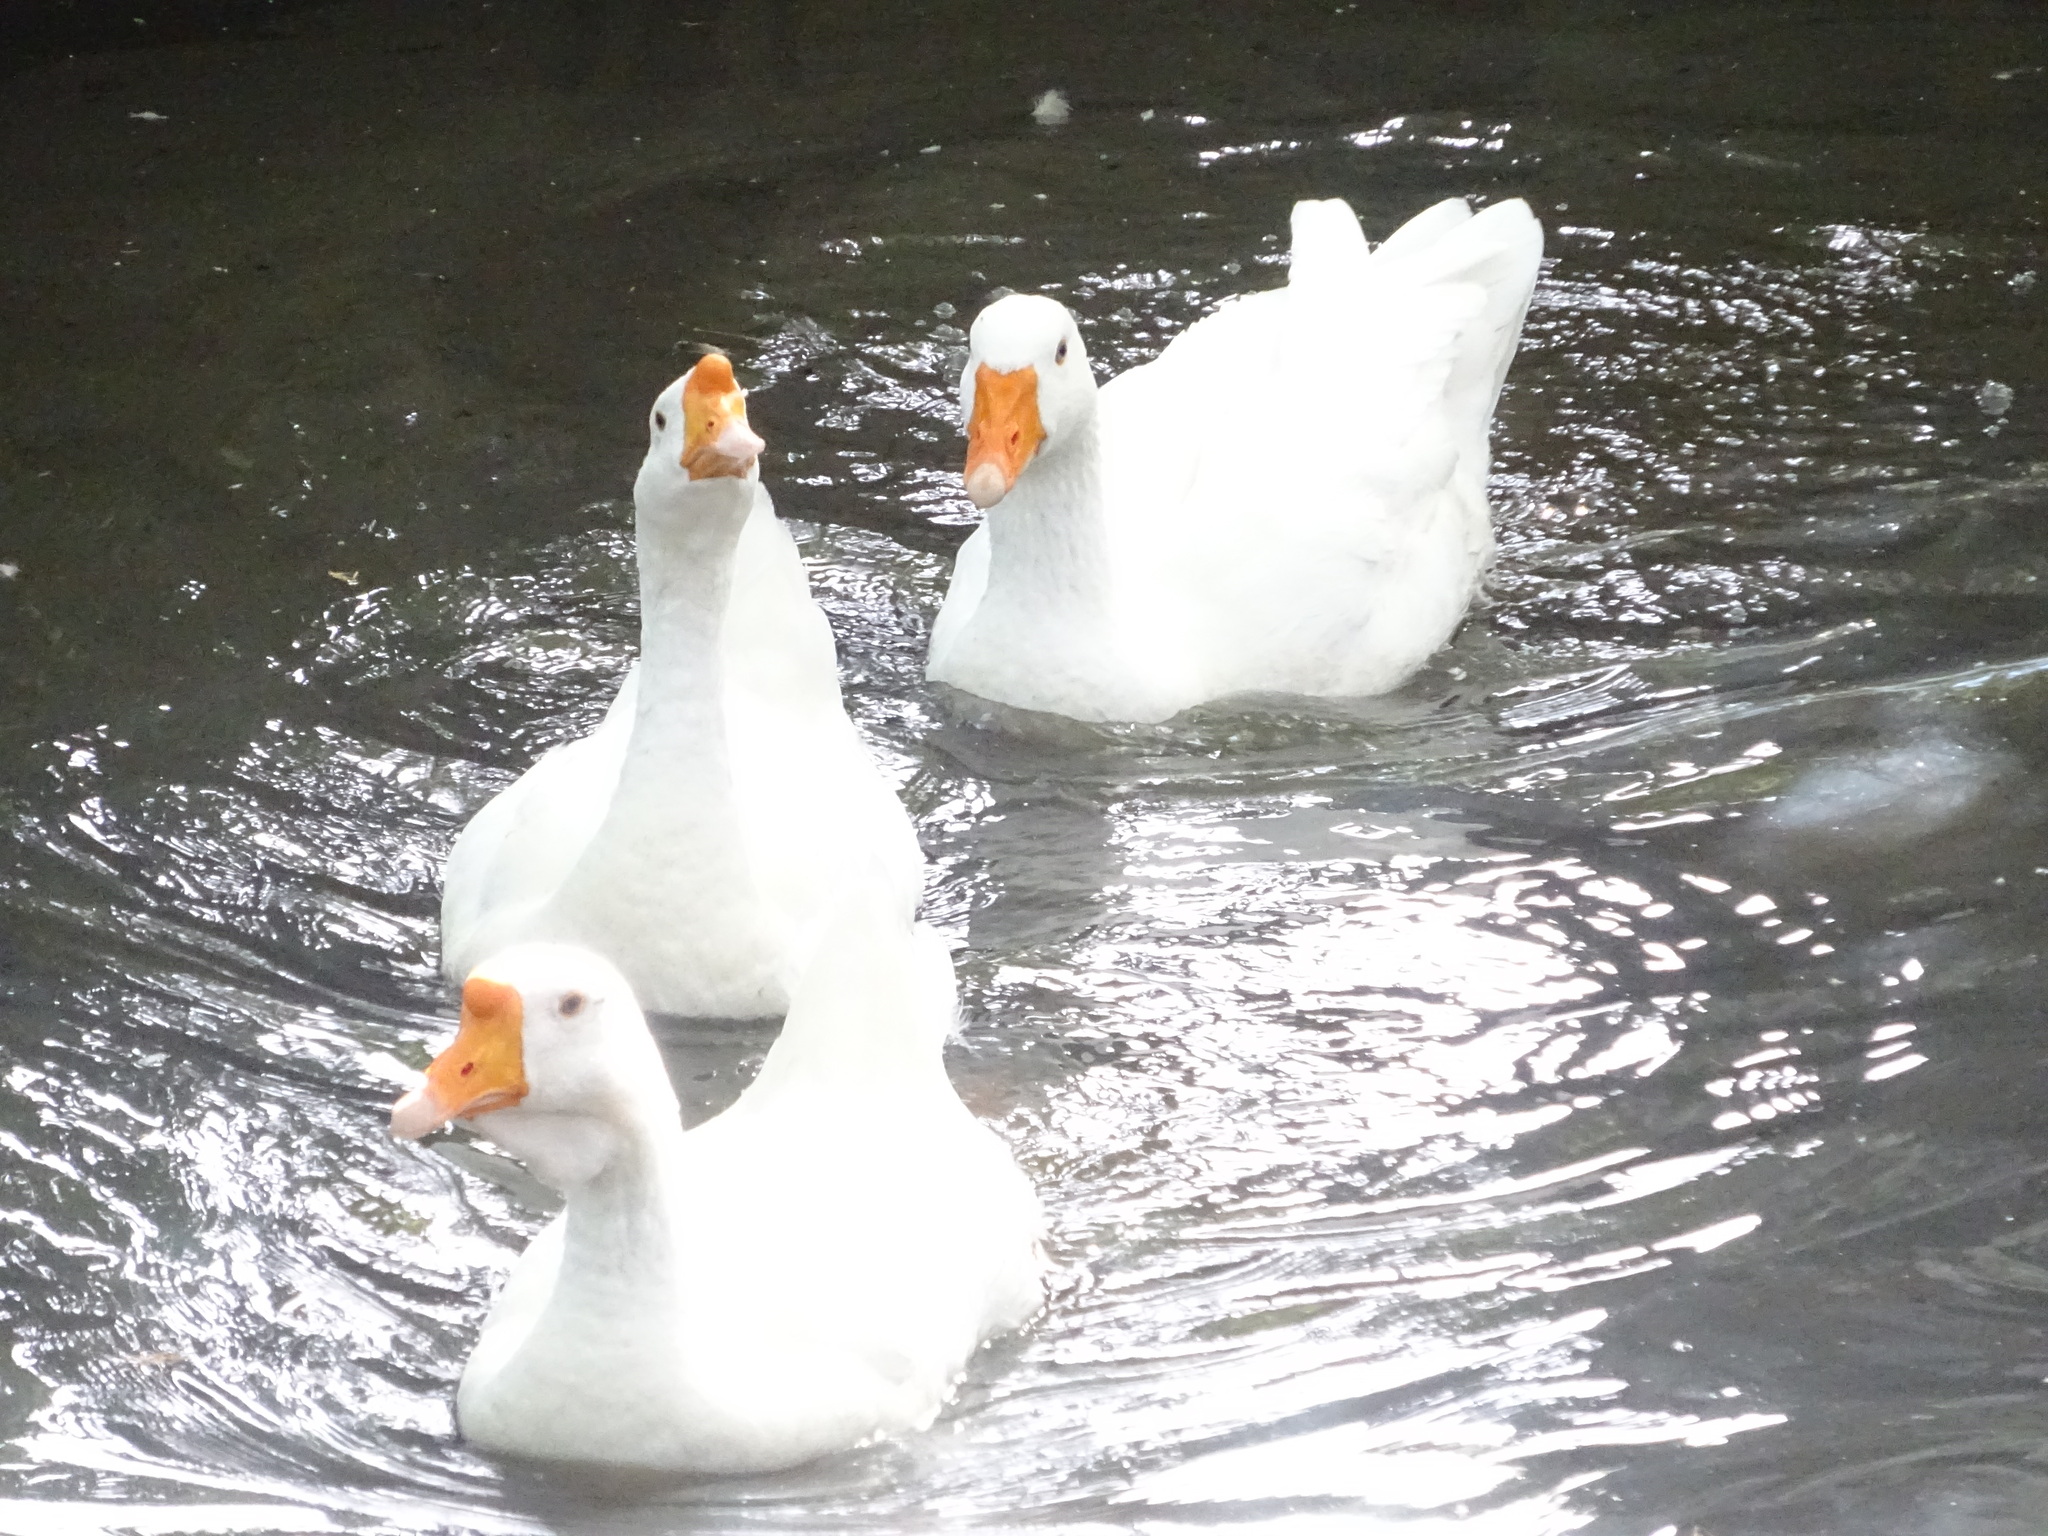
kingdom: Animalia
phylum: Chordata
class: Aves
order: Anseriformes
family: Anatidae
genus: Anser
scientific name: Anser cygnoides
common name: Swan goose
